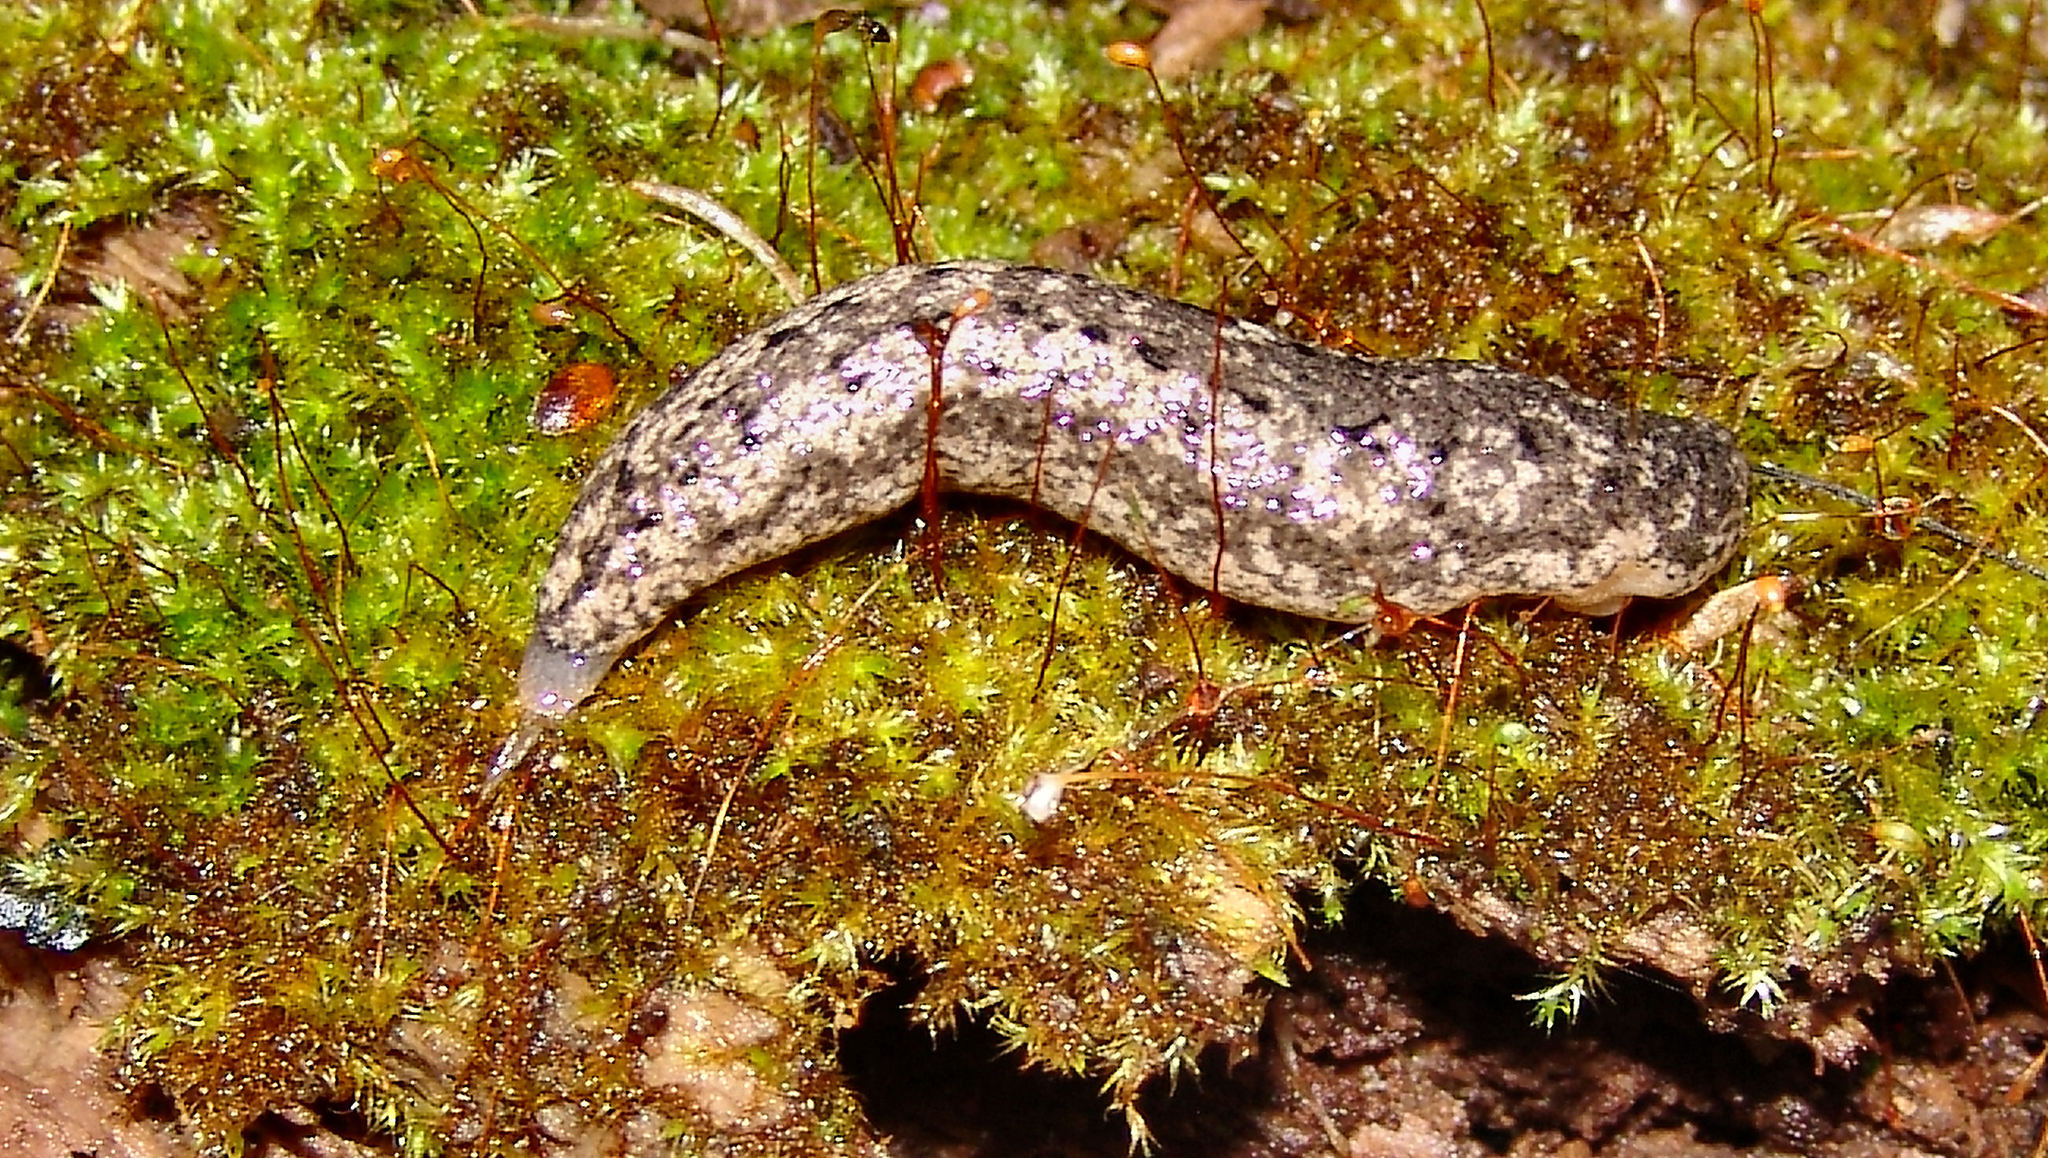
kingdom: Animalia
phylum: Mollusca
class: Gastropoda
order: Stylommatophora
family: Philomycidae
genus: Philomycus
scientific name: Philomycus carolinianus
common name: Carolina mantleslug
